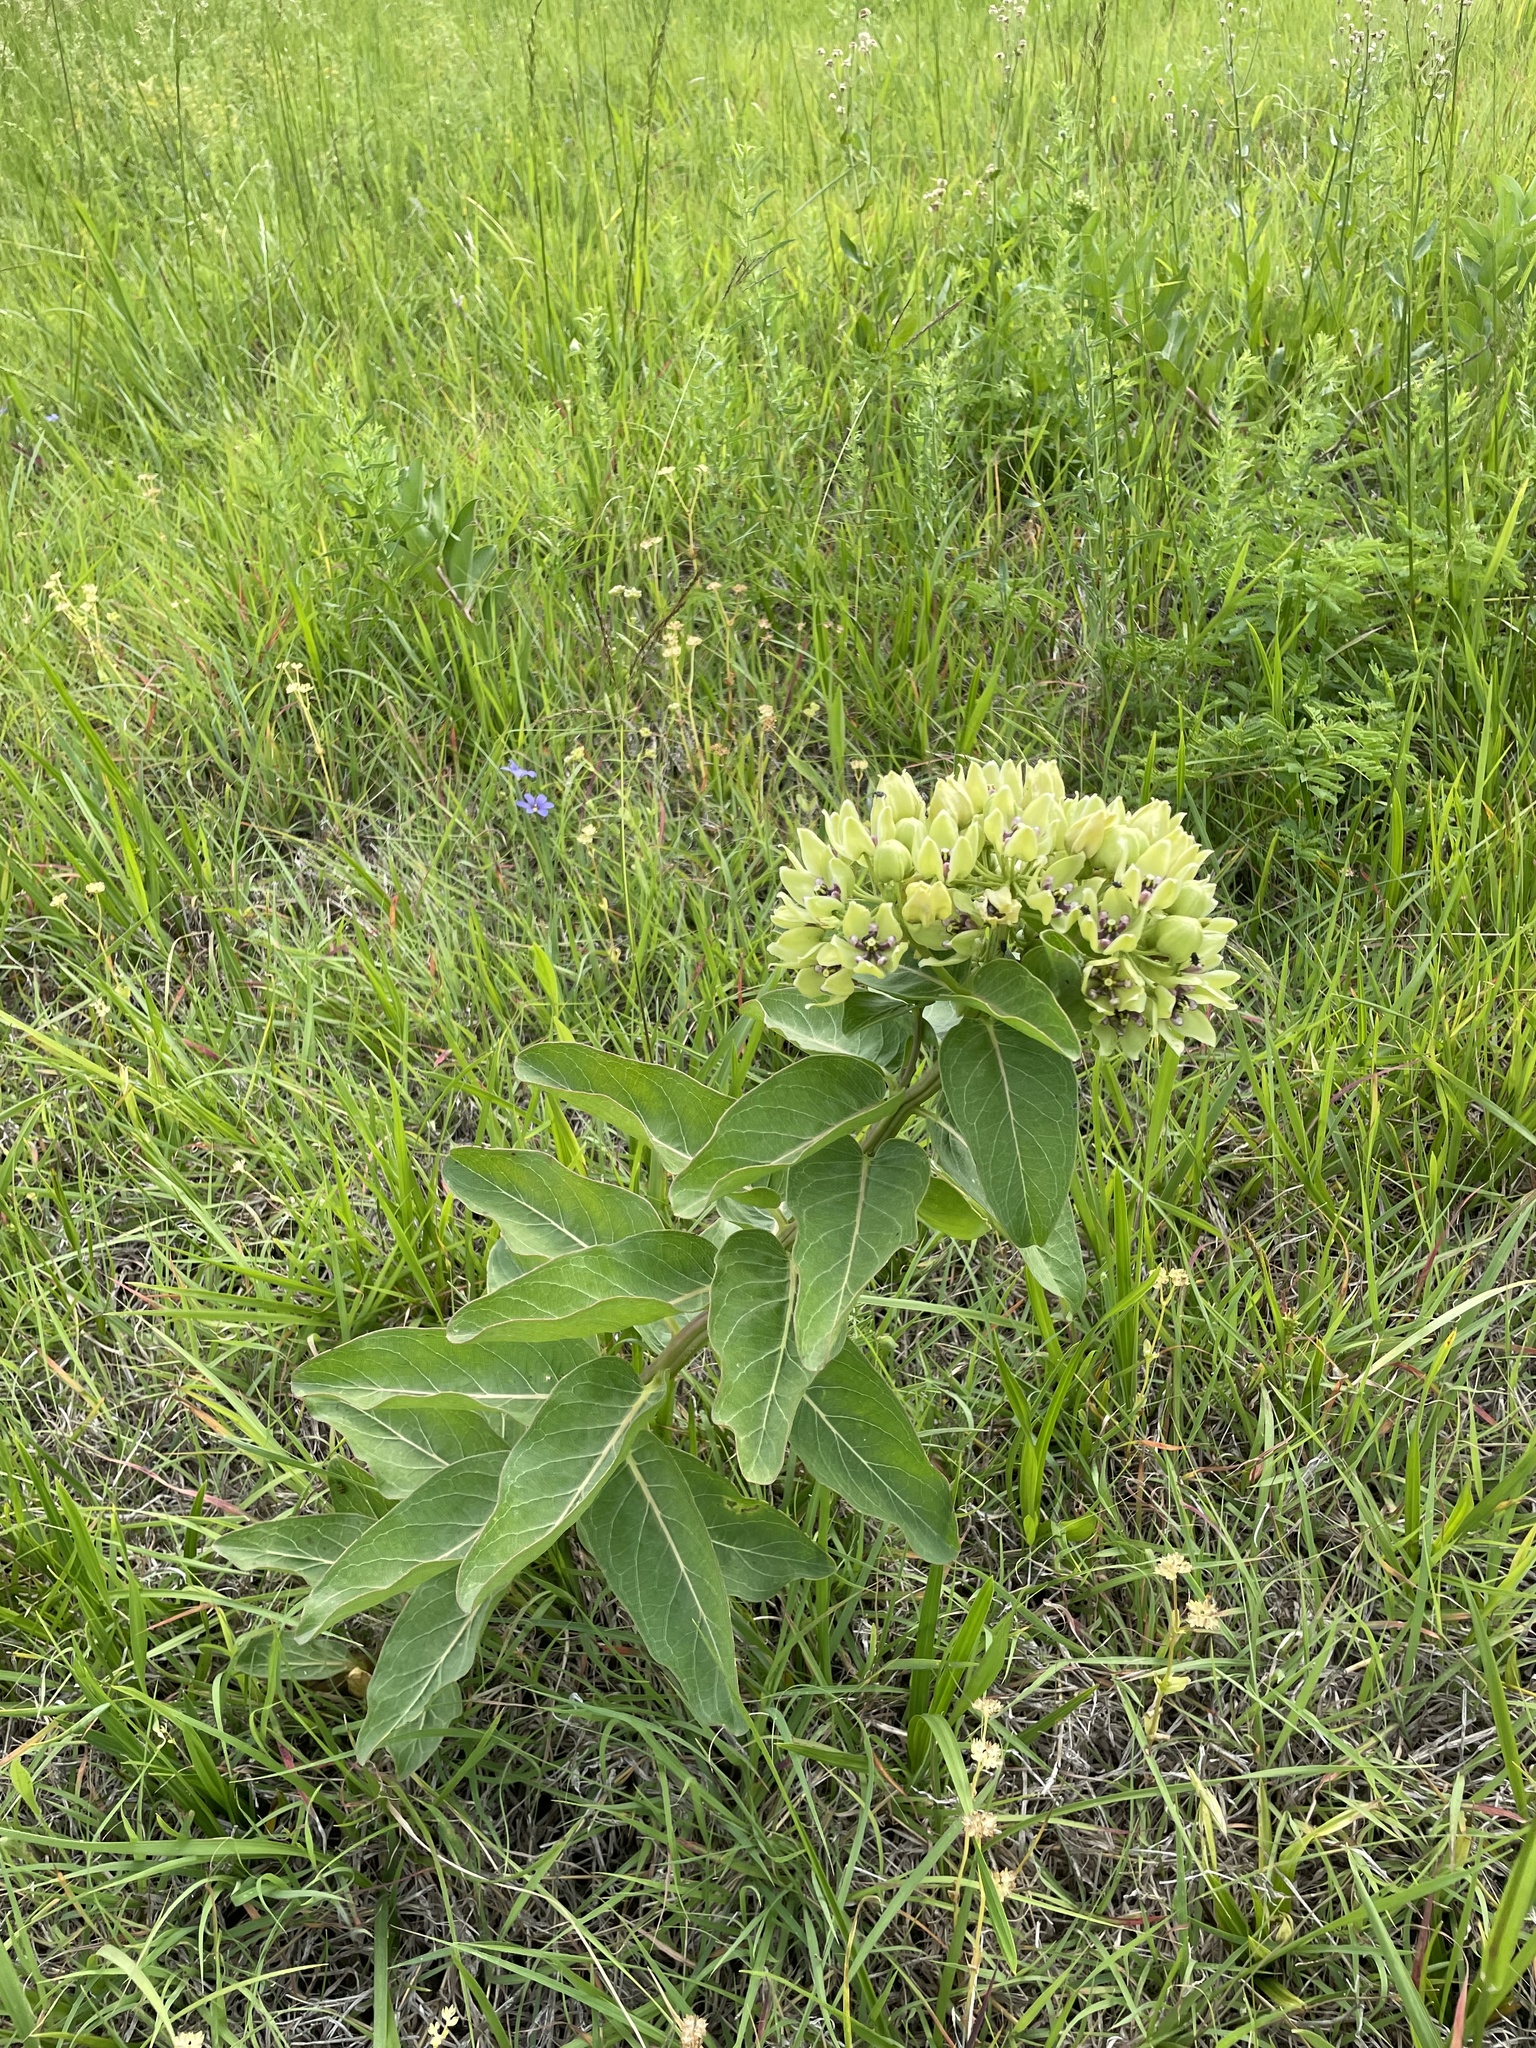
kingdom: Plantae
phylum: Tracheophyta
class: Magnoliopsida
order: Gentianales
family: Apocynaceae
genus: Asclepias
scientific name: Asclepias viridis
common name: Antelope-horns
